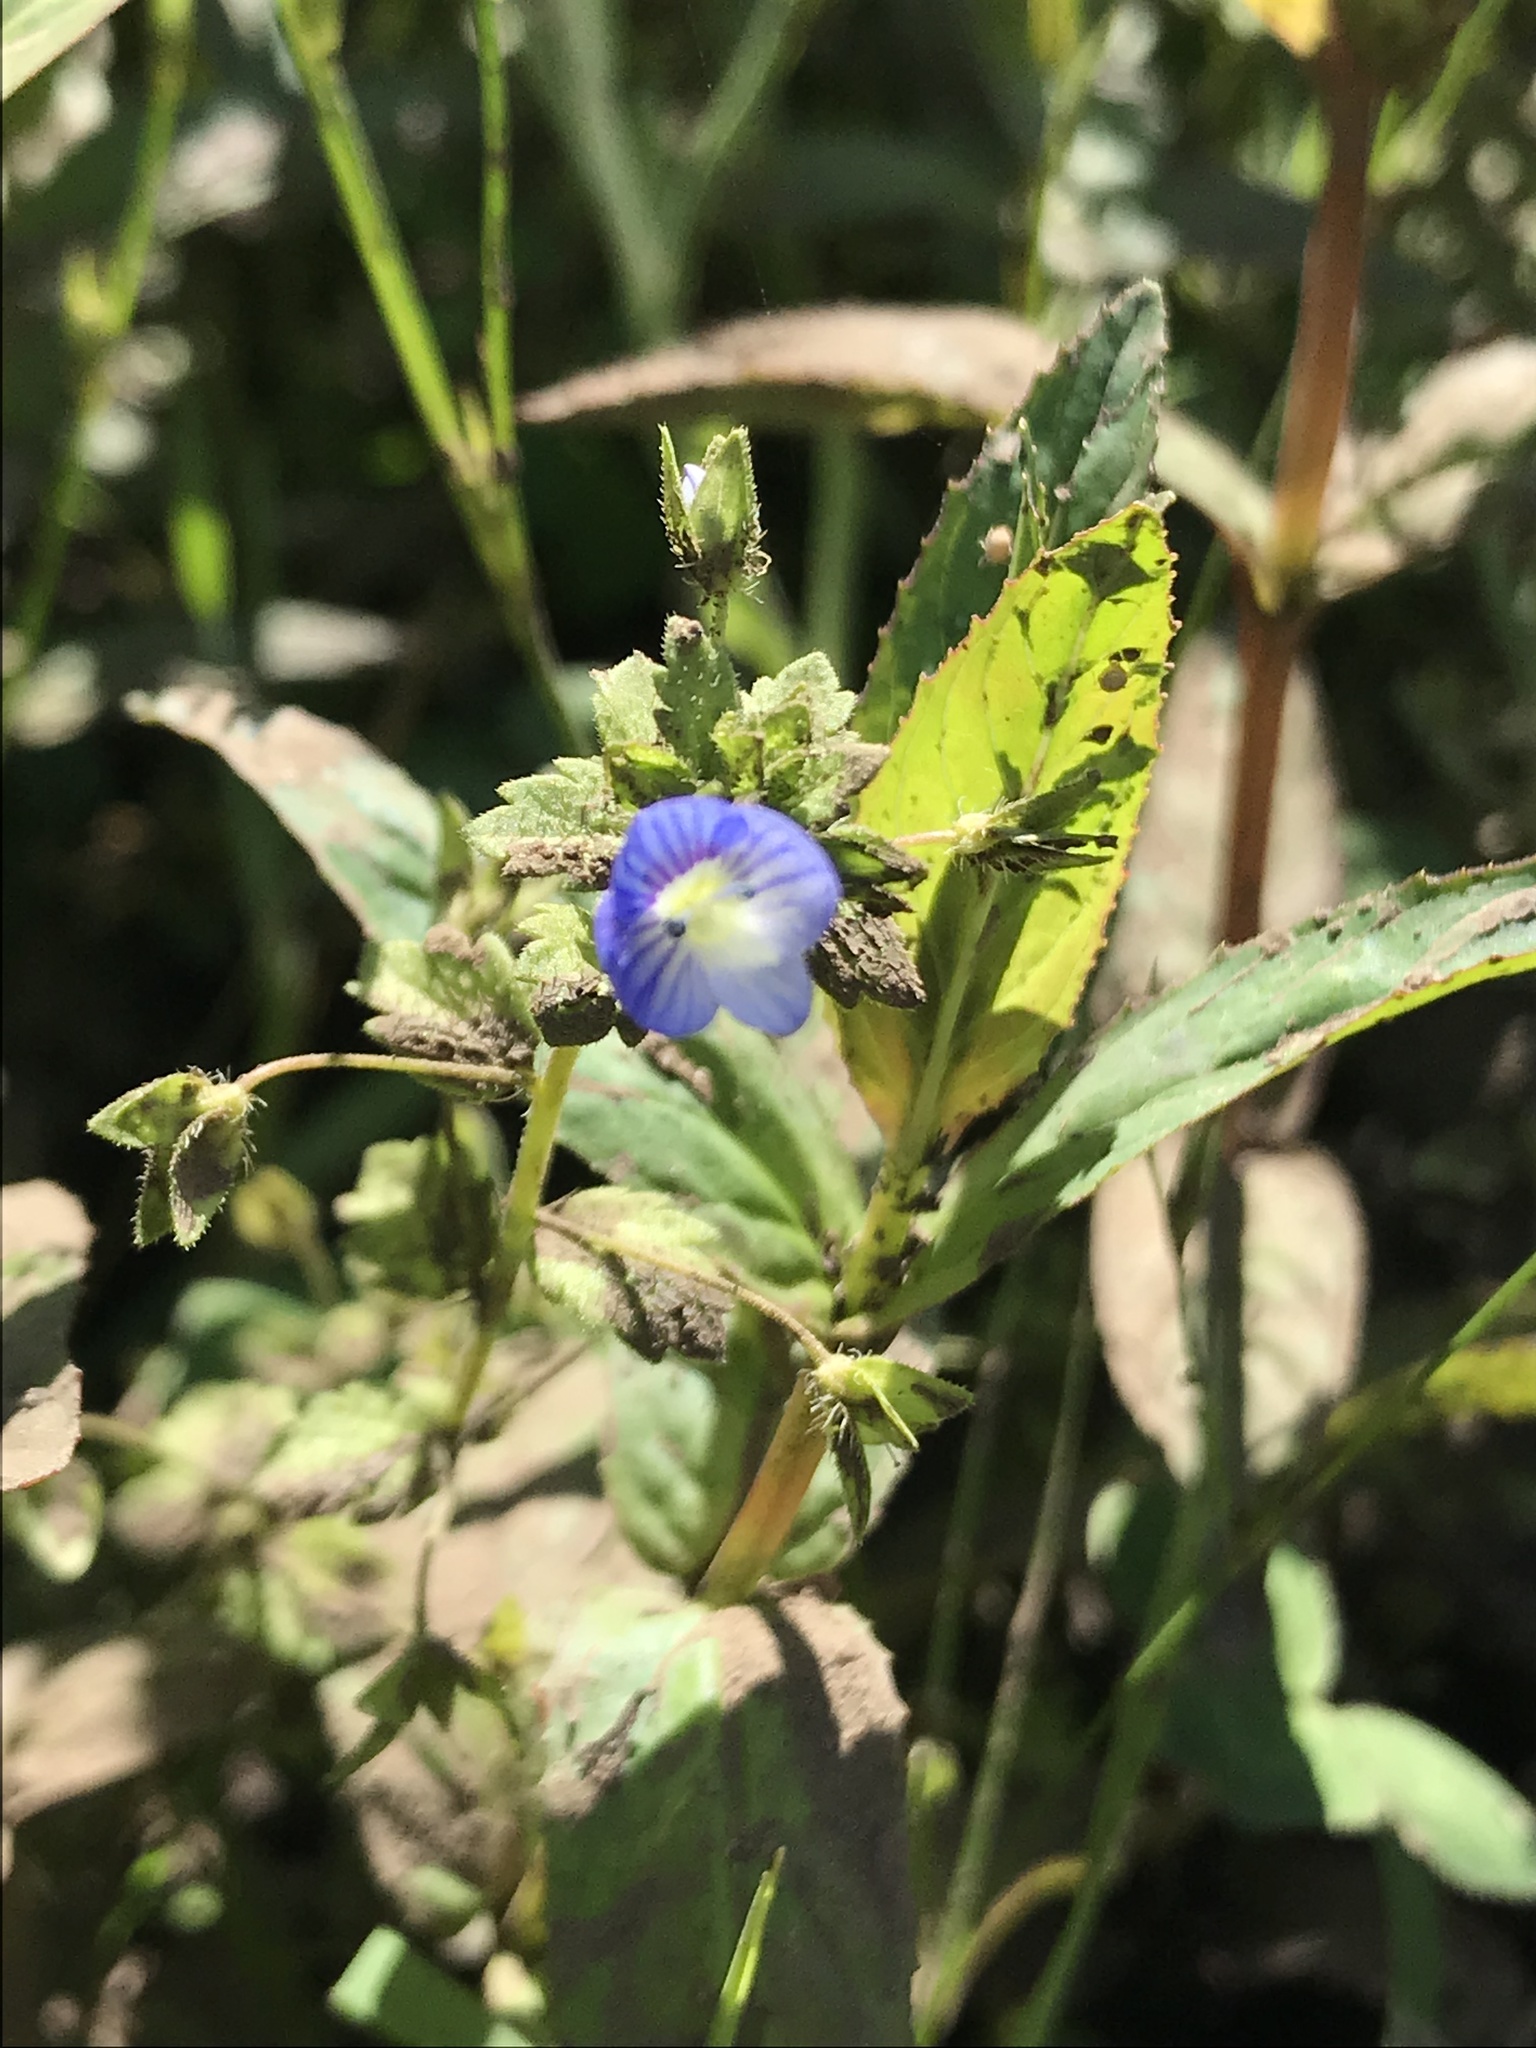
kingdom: Plantae
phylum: Tracheophyta
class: Magnoliopsida
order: Lamiales
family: Plantaginaceae
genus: Veronica
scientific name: Veronica persica
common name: Common field-speedwell
